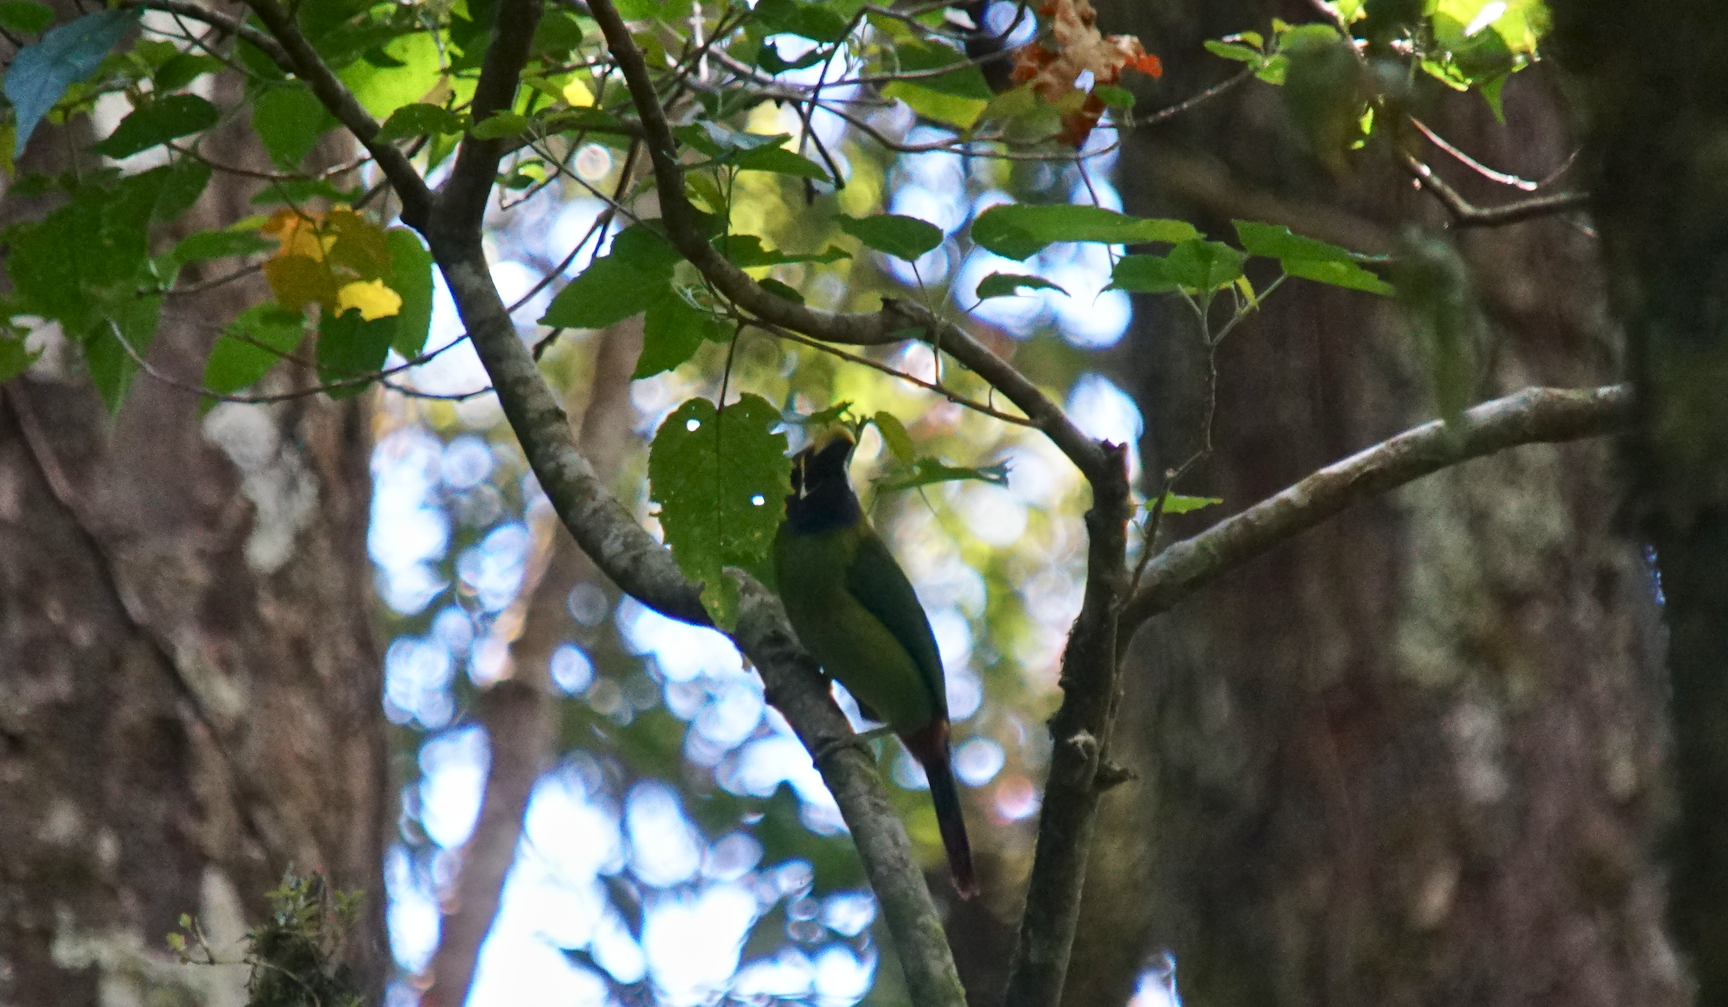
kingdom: Animalia
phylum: Chordata
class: Aves
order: Piciformes
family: Ramphastidae
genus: Aulacorhynchus
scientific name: Aulacorhynchus prasinus
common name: Emerald toucanet
